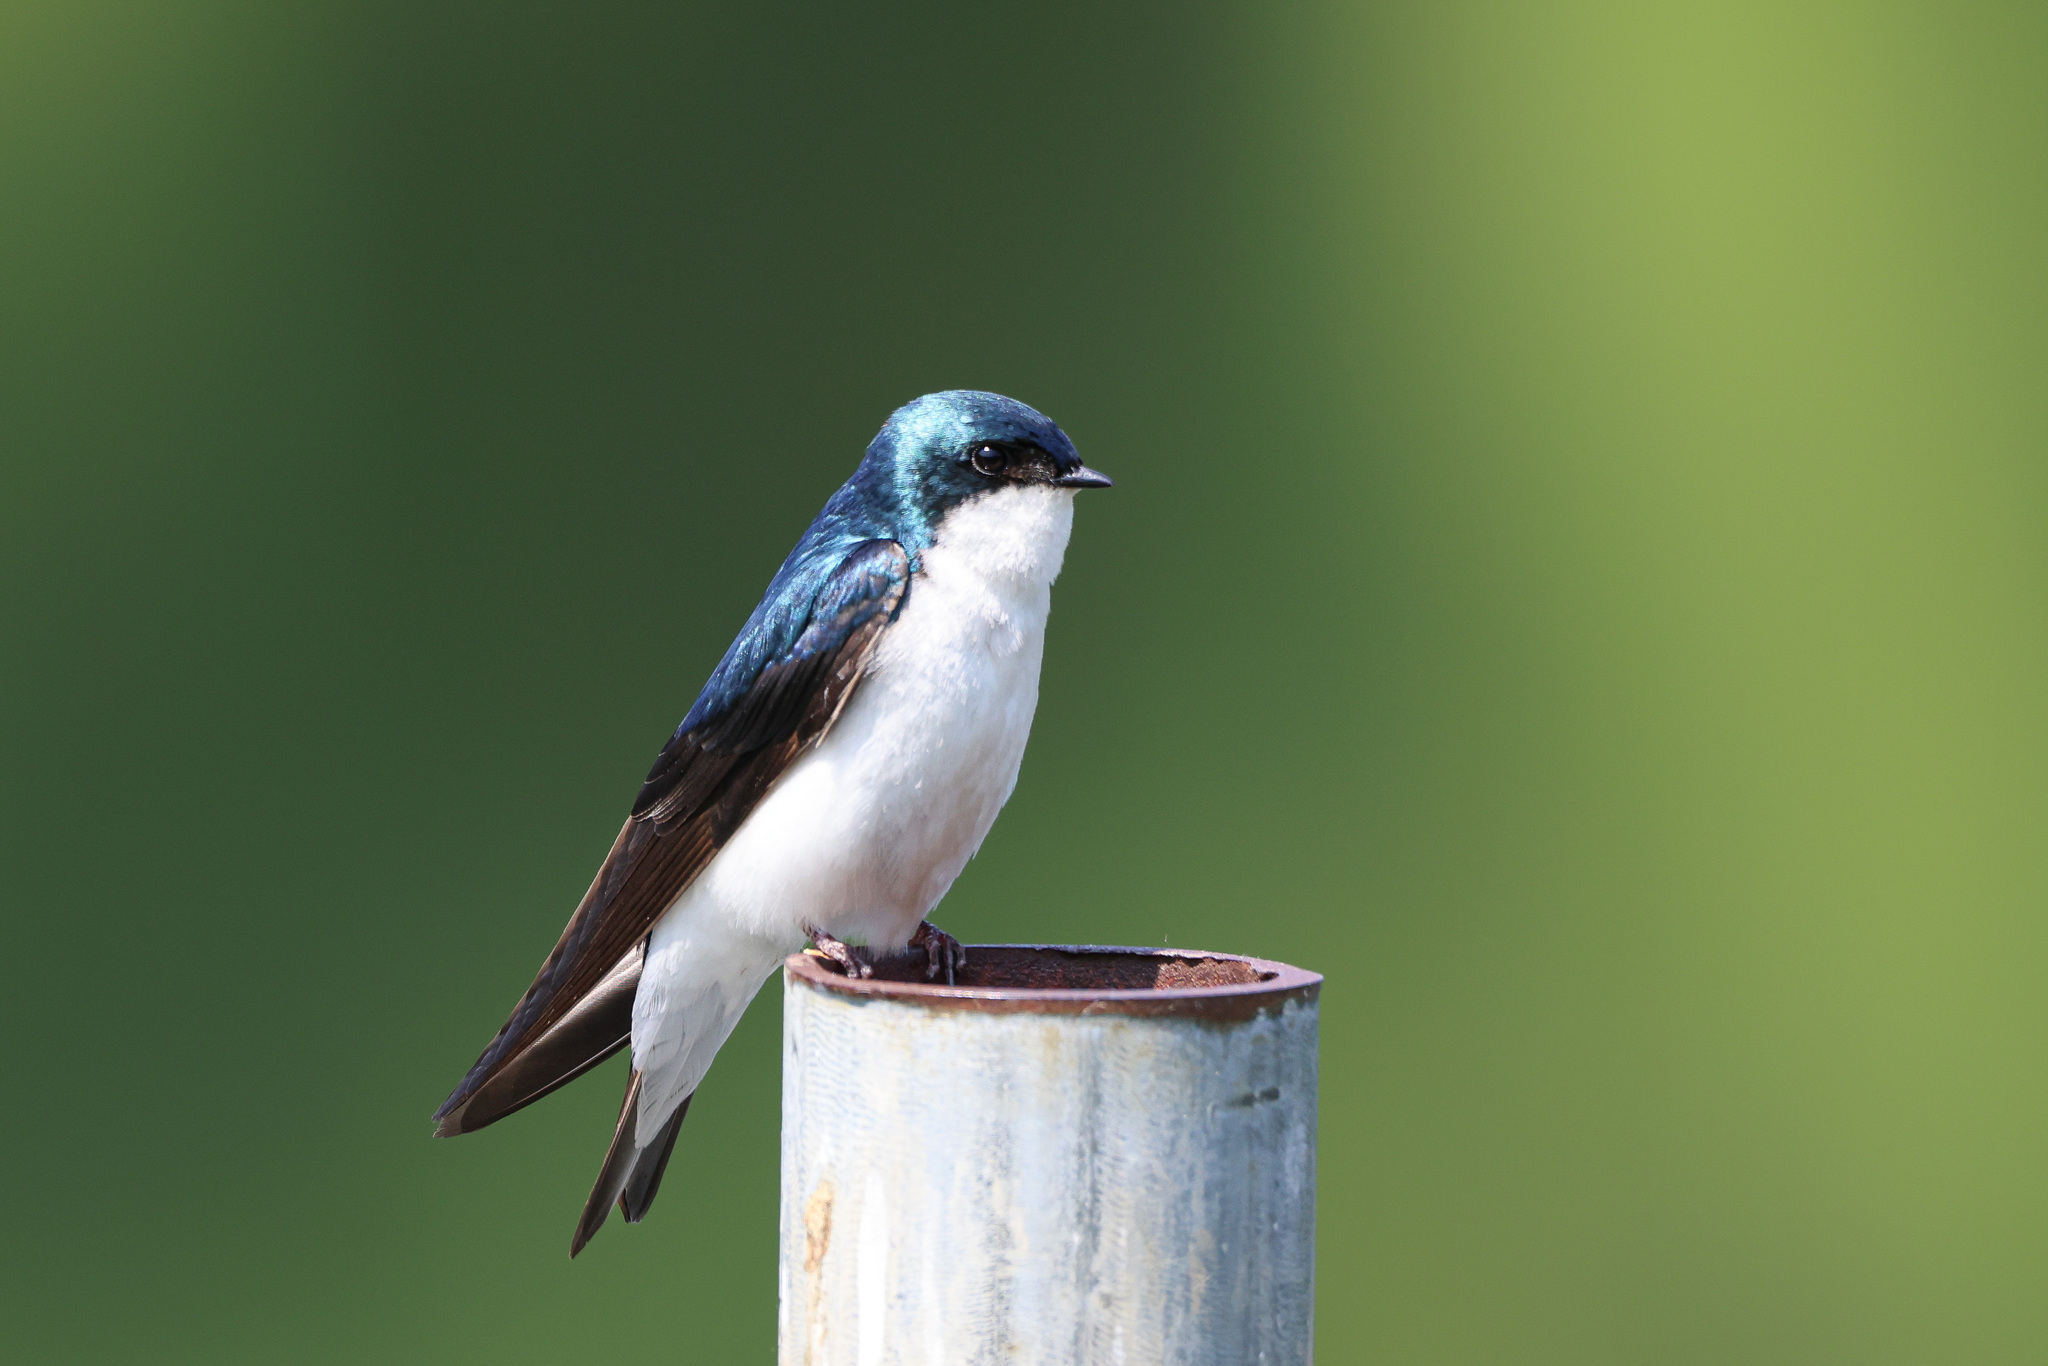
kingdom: Animalia
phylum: Chordata
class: Aves
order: Passeriformes
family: Hirundinidae
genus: Tachycineta
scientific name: Tachycineta bicolor
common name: Tree swallow
